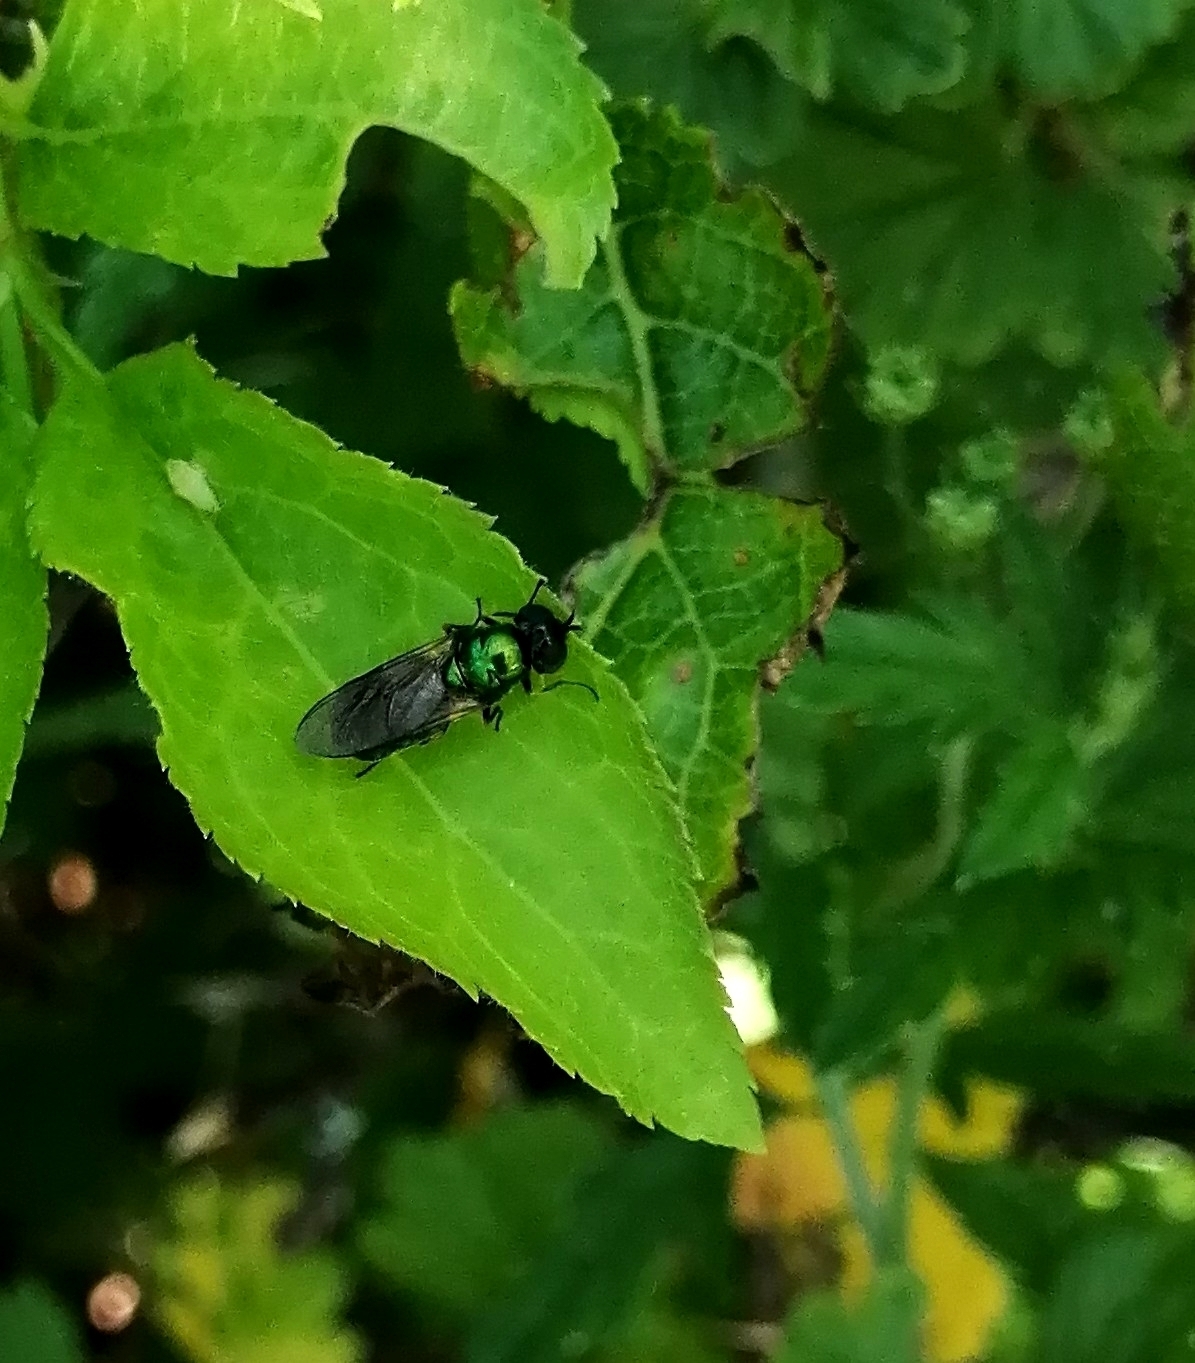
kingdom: Animalia
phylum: Arthropoda
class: Insecta
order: Diptera
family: Stratiomyidae
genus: Chloromyia
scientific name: Chloromyia formosa
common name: Soldier fly
